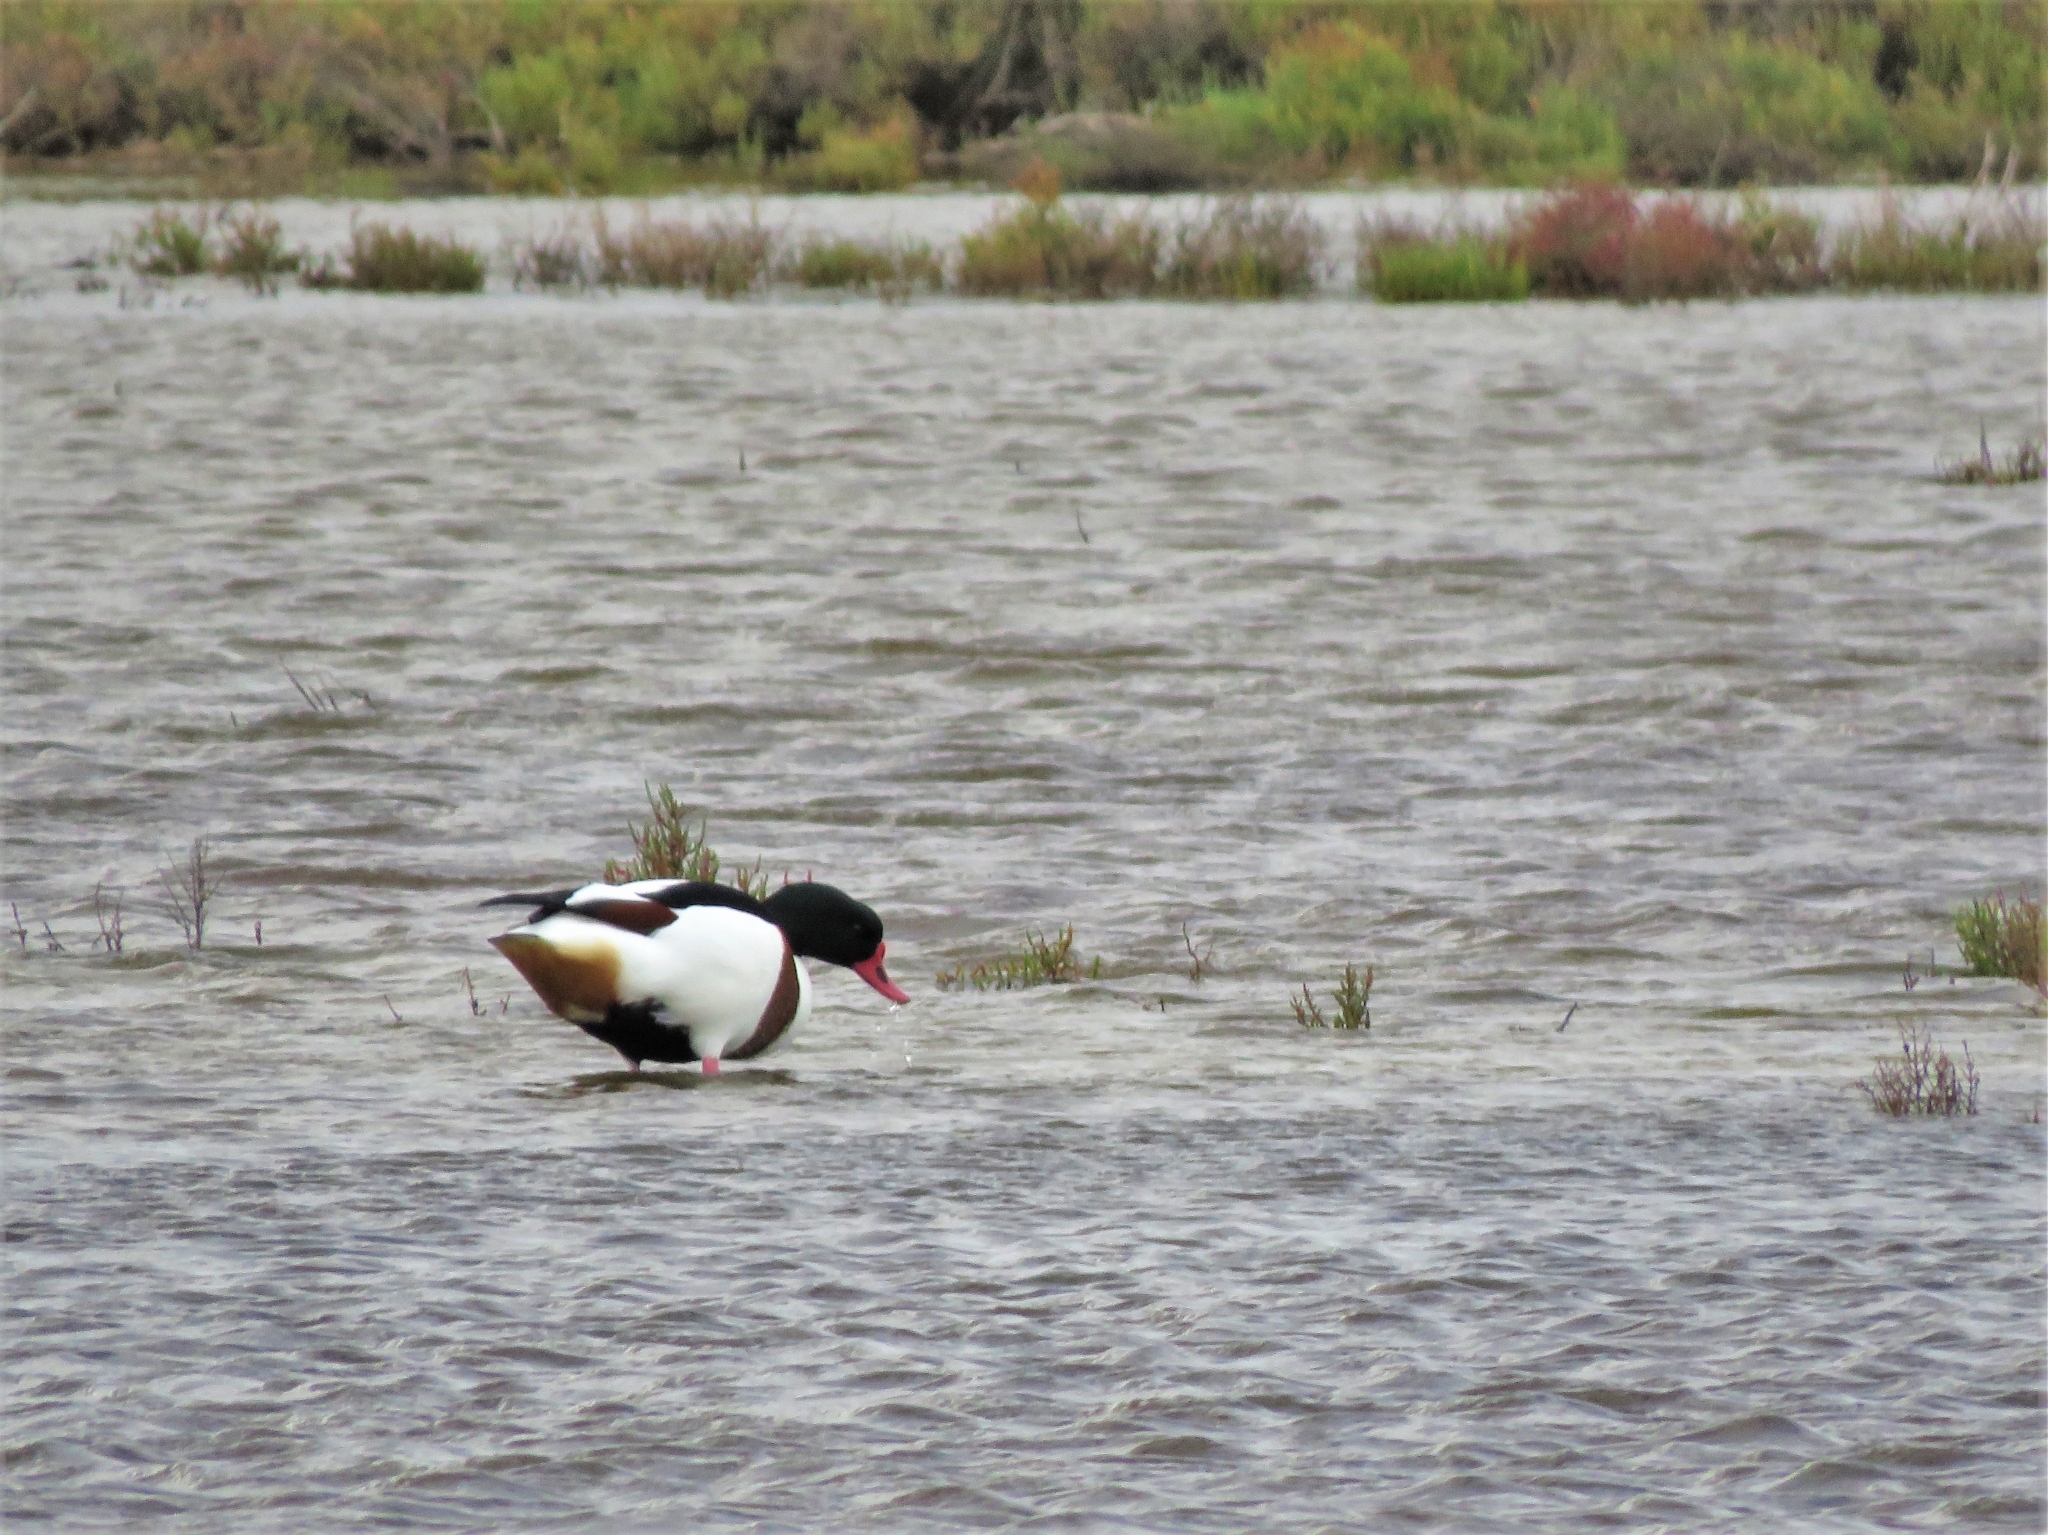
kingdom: Animalia
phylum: Chordata
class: Aves
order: Anseriformes
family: Anatidae
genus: Tadorna
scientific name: Tadorna tadorna
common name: Common shelduck
